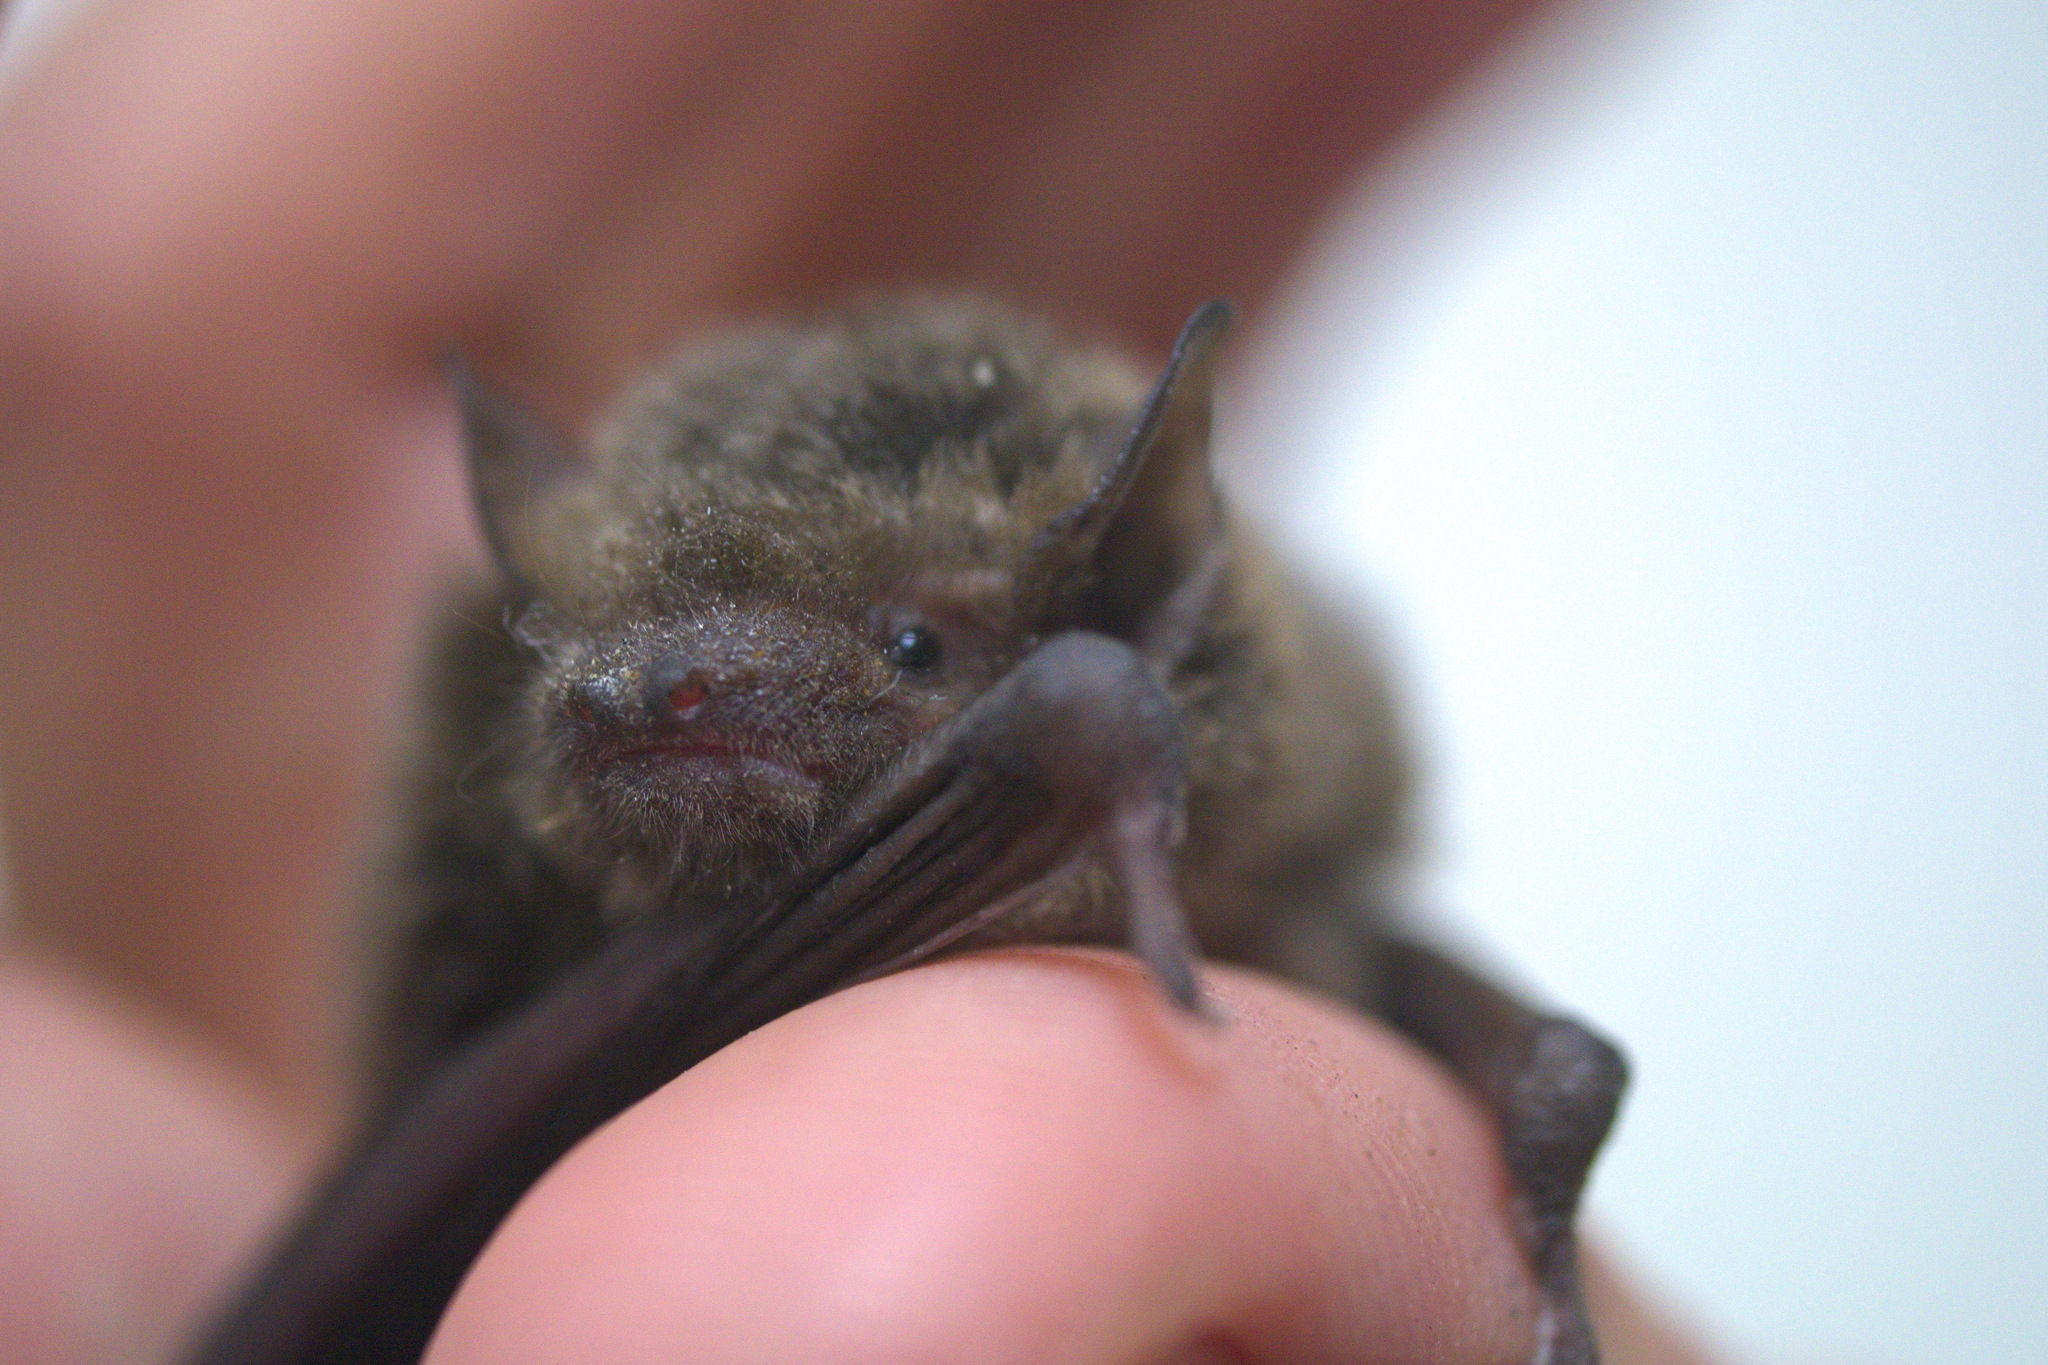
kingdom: Animalia
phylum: Chordata
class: Mammalia
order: Chiroptera
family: Vespertilionidae
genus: Pipistrellus
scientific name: Pipistrellus abramus
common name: Japanese pipistrelle
